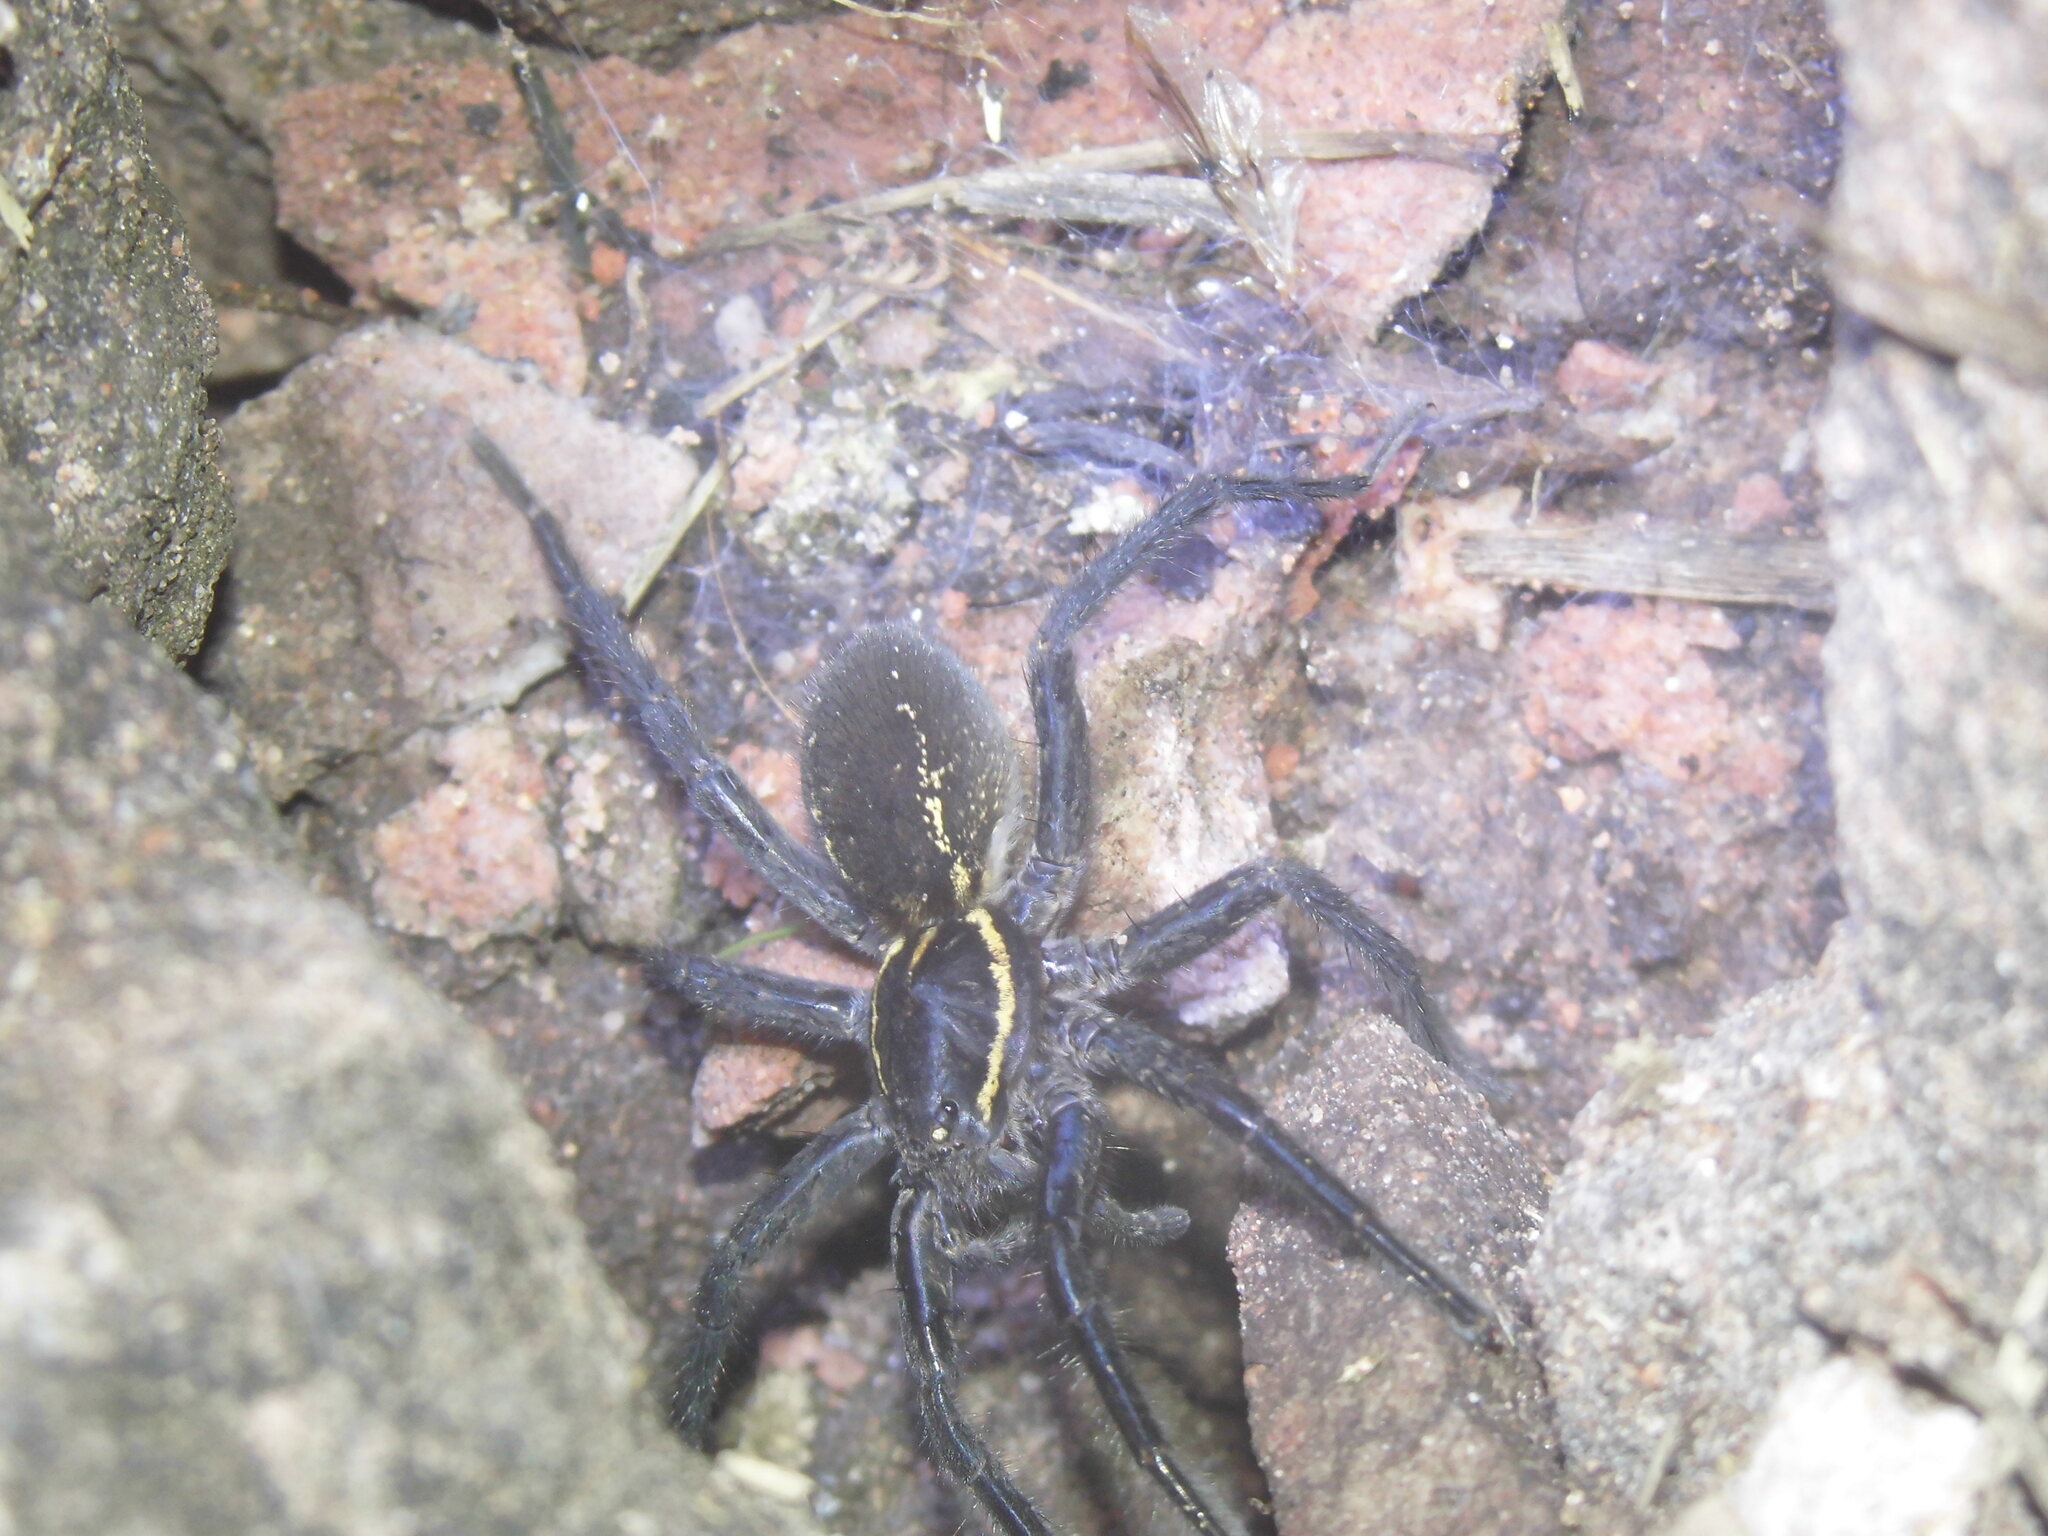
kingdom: Animalia
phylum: Arthropoda
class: Arachnida
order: Araneae
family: Lycosidae
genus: Aglaoctenus
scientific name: Aglaoctenus oblongus
